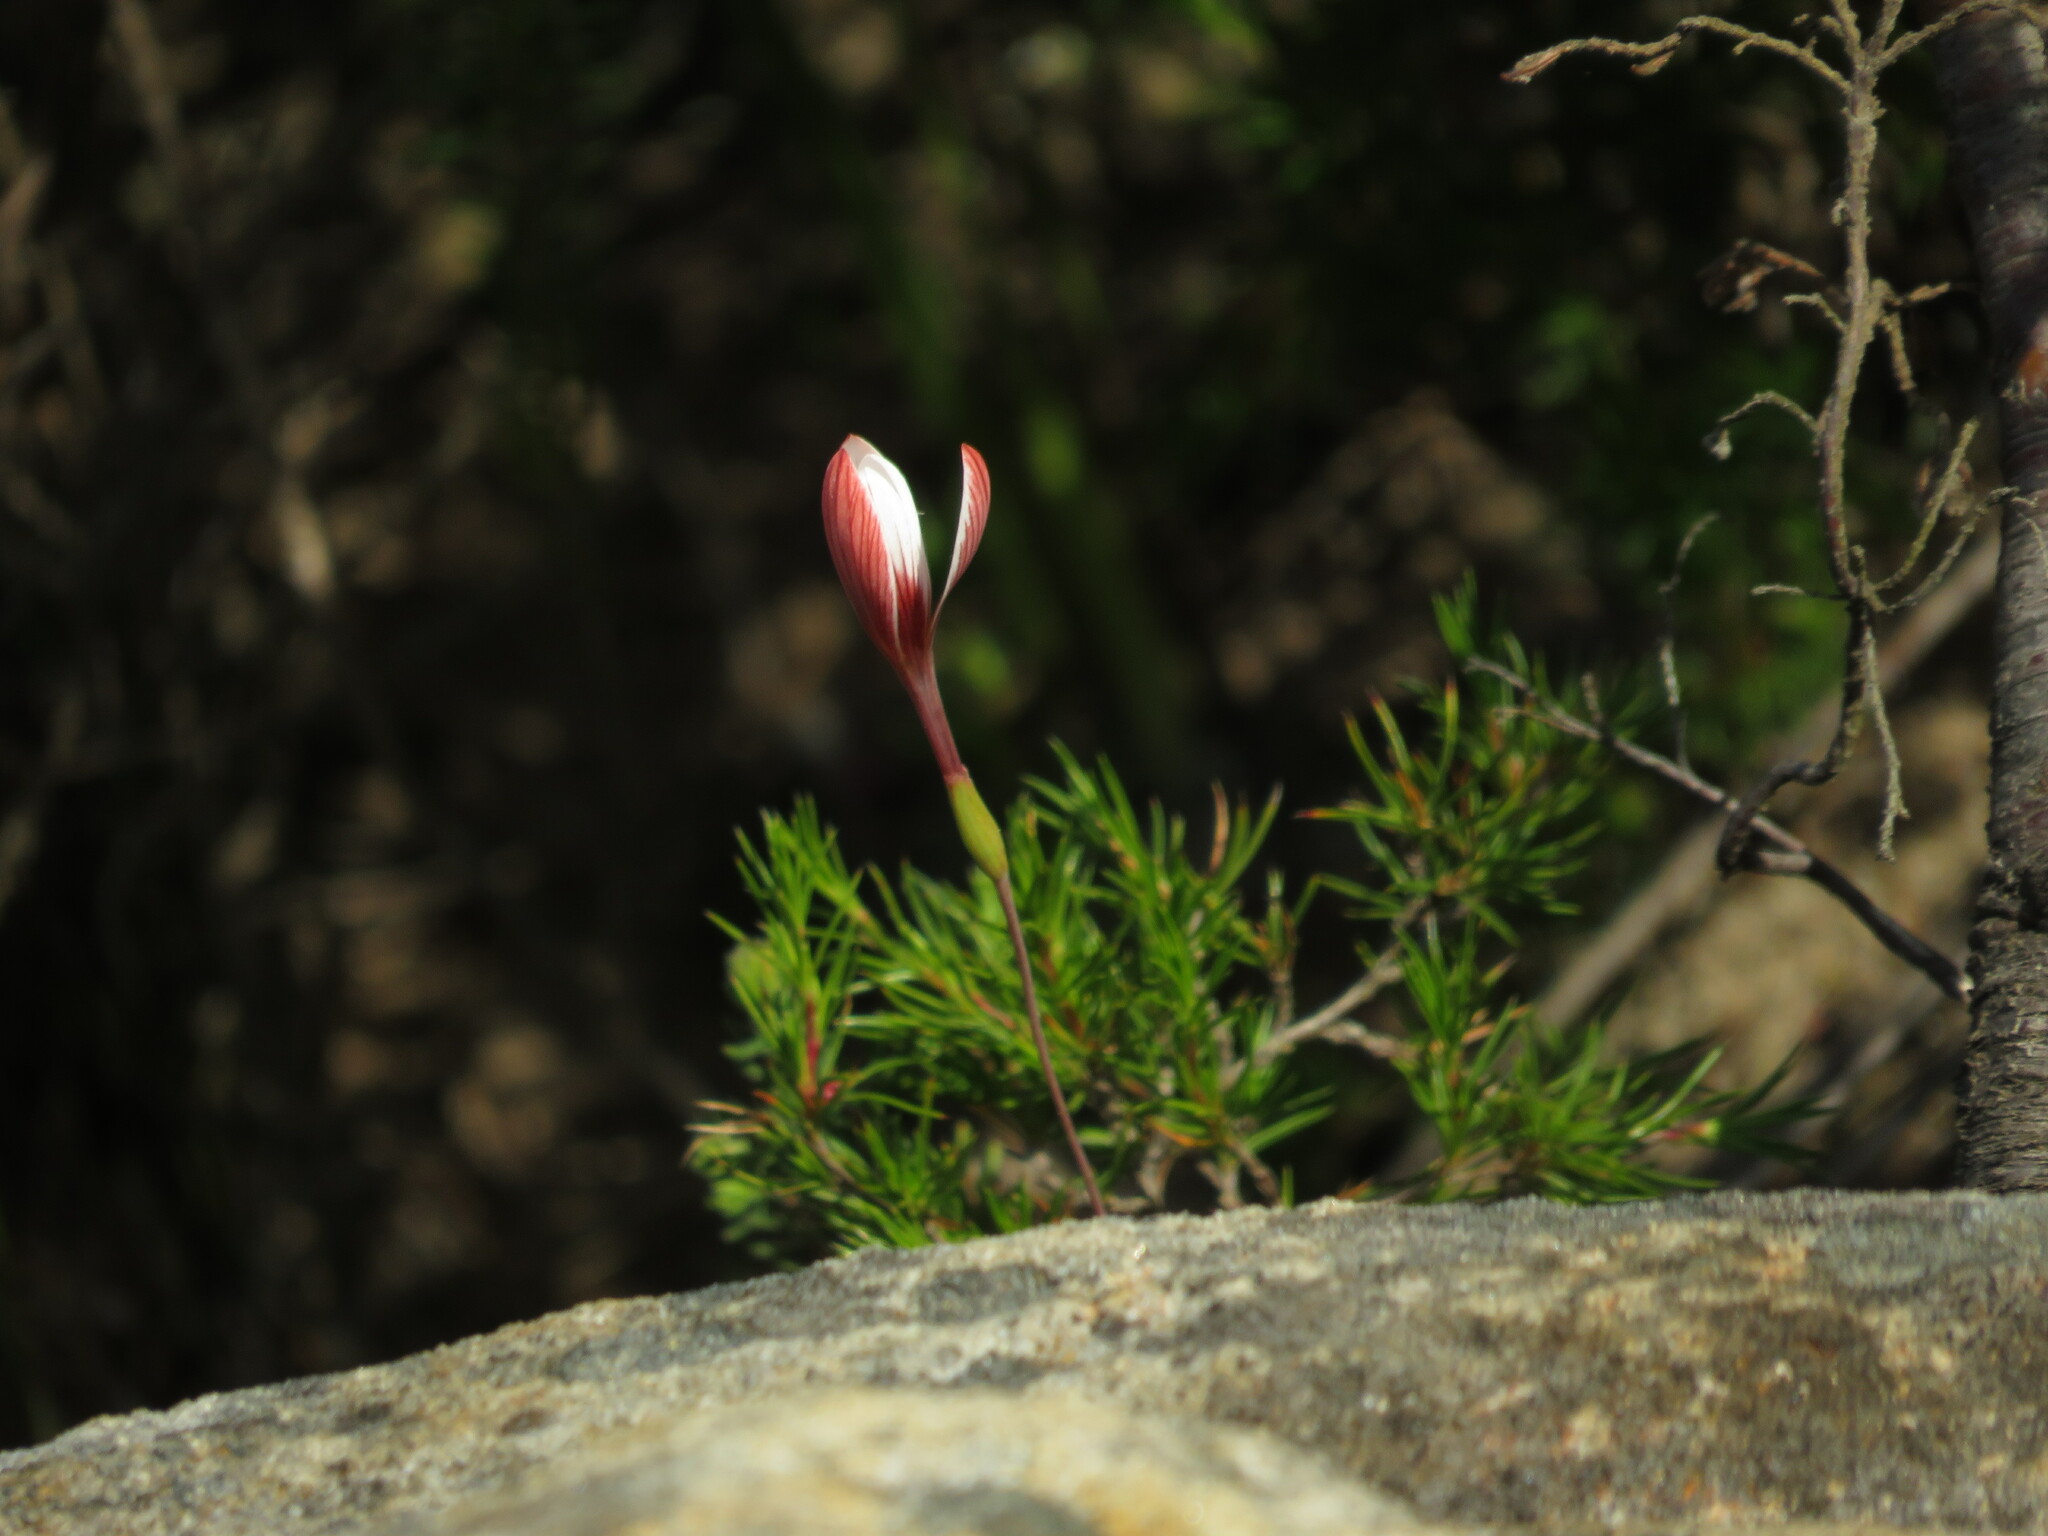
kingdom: Plantae
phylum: Tracheophyta
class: Liliopsida
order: Asparagales
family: Iridaceae
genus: Geissorhiza
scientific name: Geissorhiza ovata
